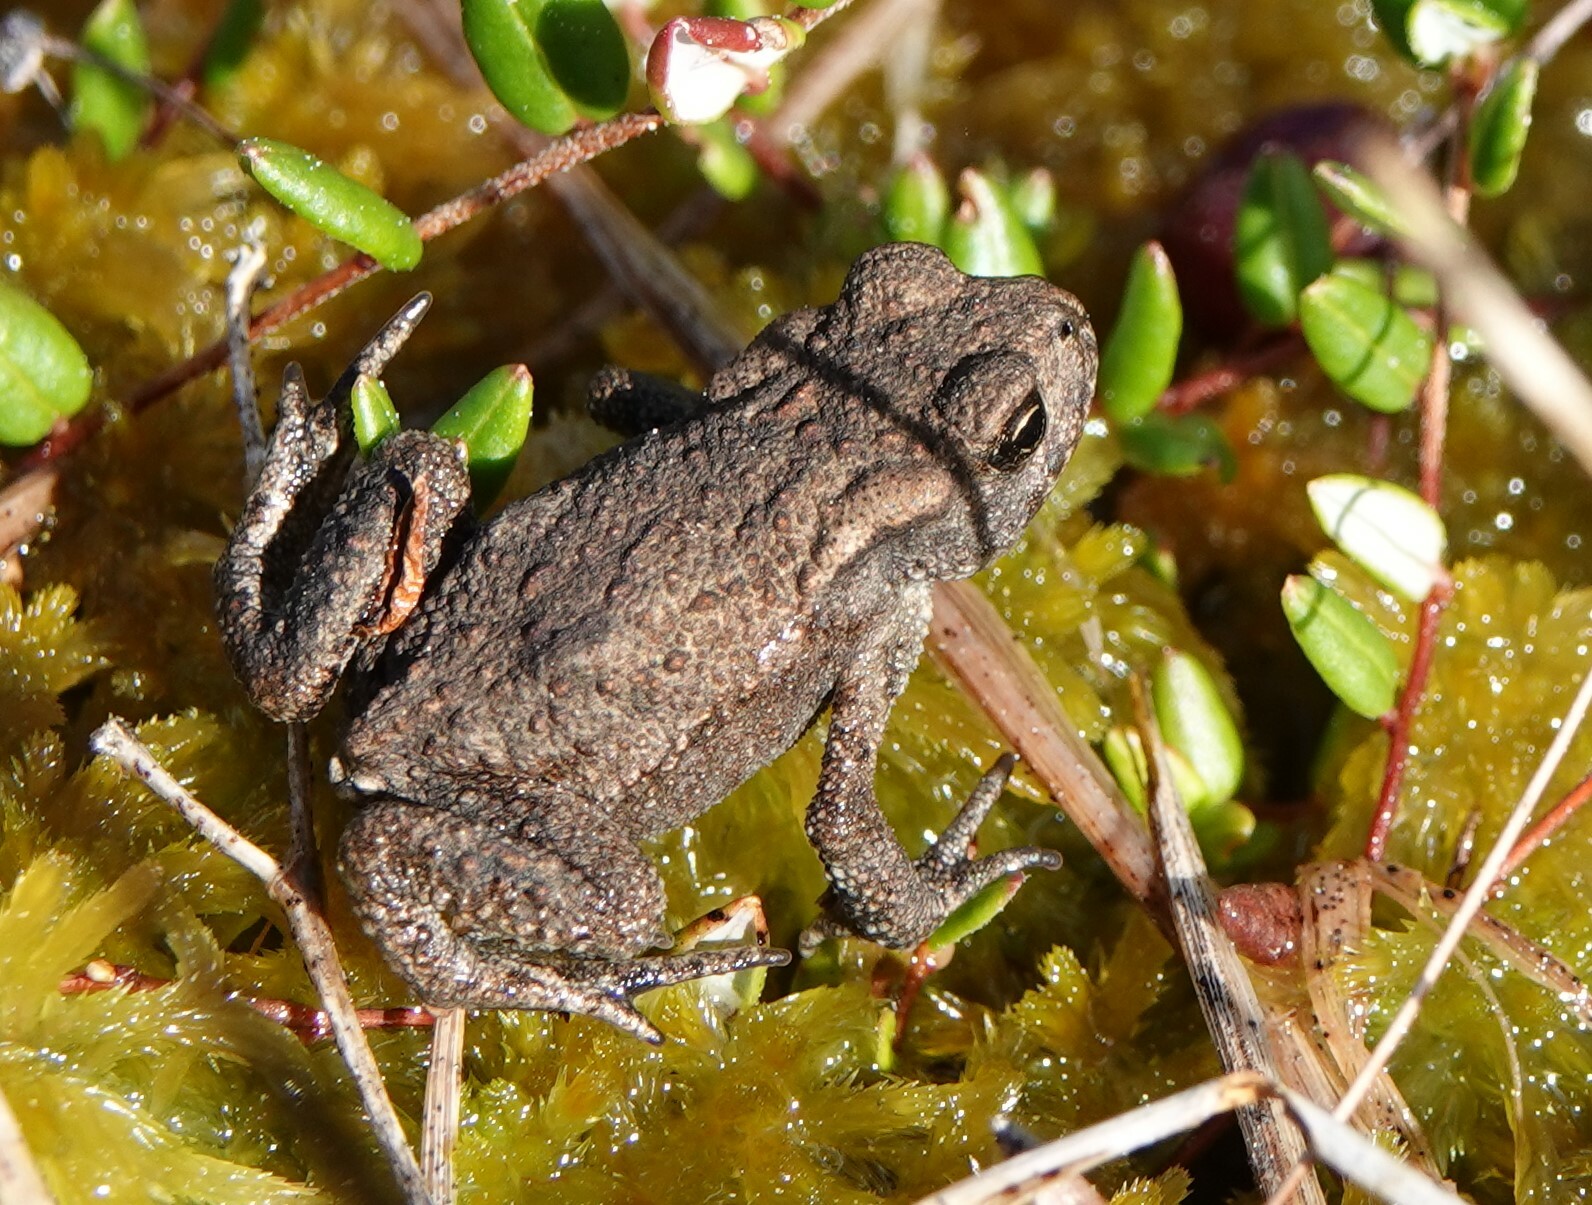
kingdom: Animalia
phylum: Chordata
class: Amphibia
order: Anura
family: Bufonidae
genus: Bufo
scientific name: Bufo bufo
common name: Common toad
